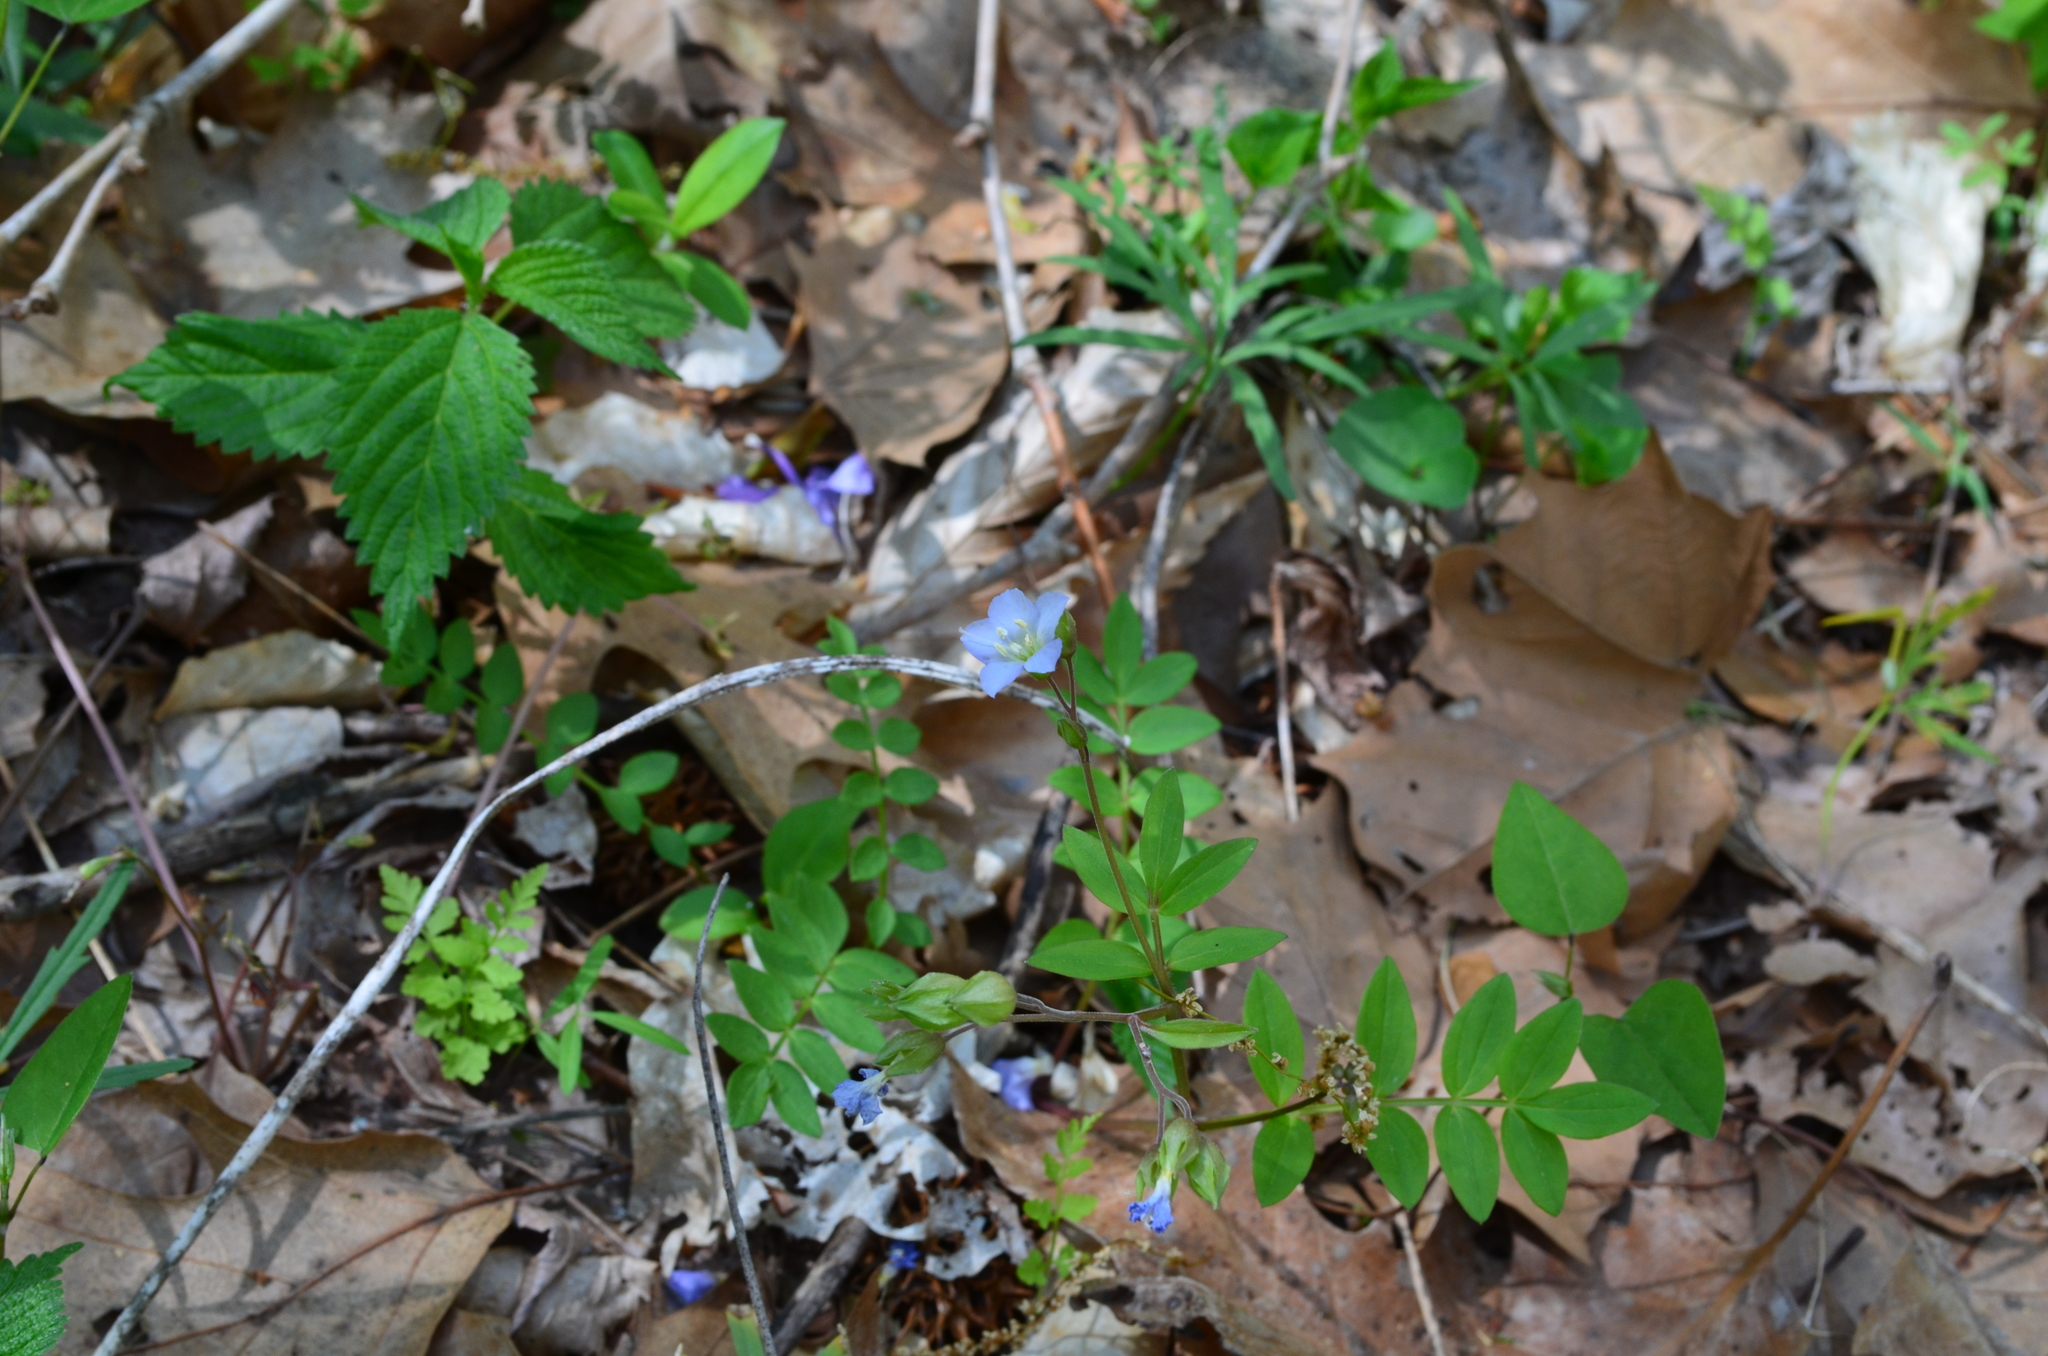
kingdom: Plantae
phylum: Tracheophyta
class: Magnoliopsida
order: Ericales
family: Polemoniaceae
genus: Polemonium
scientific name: Polemonium reptans
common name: Creeping jacob's-ladder
